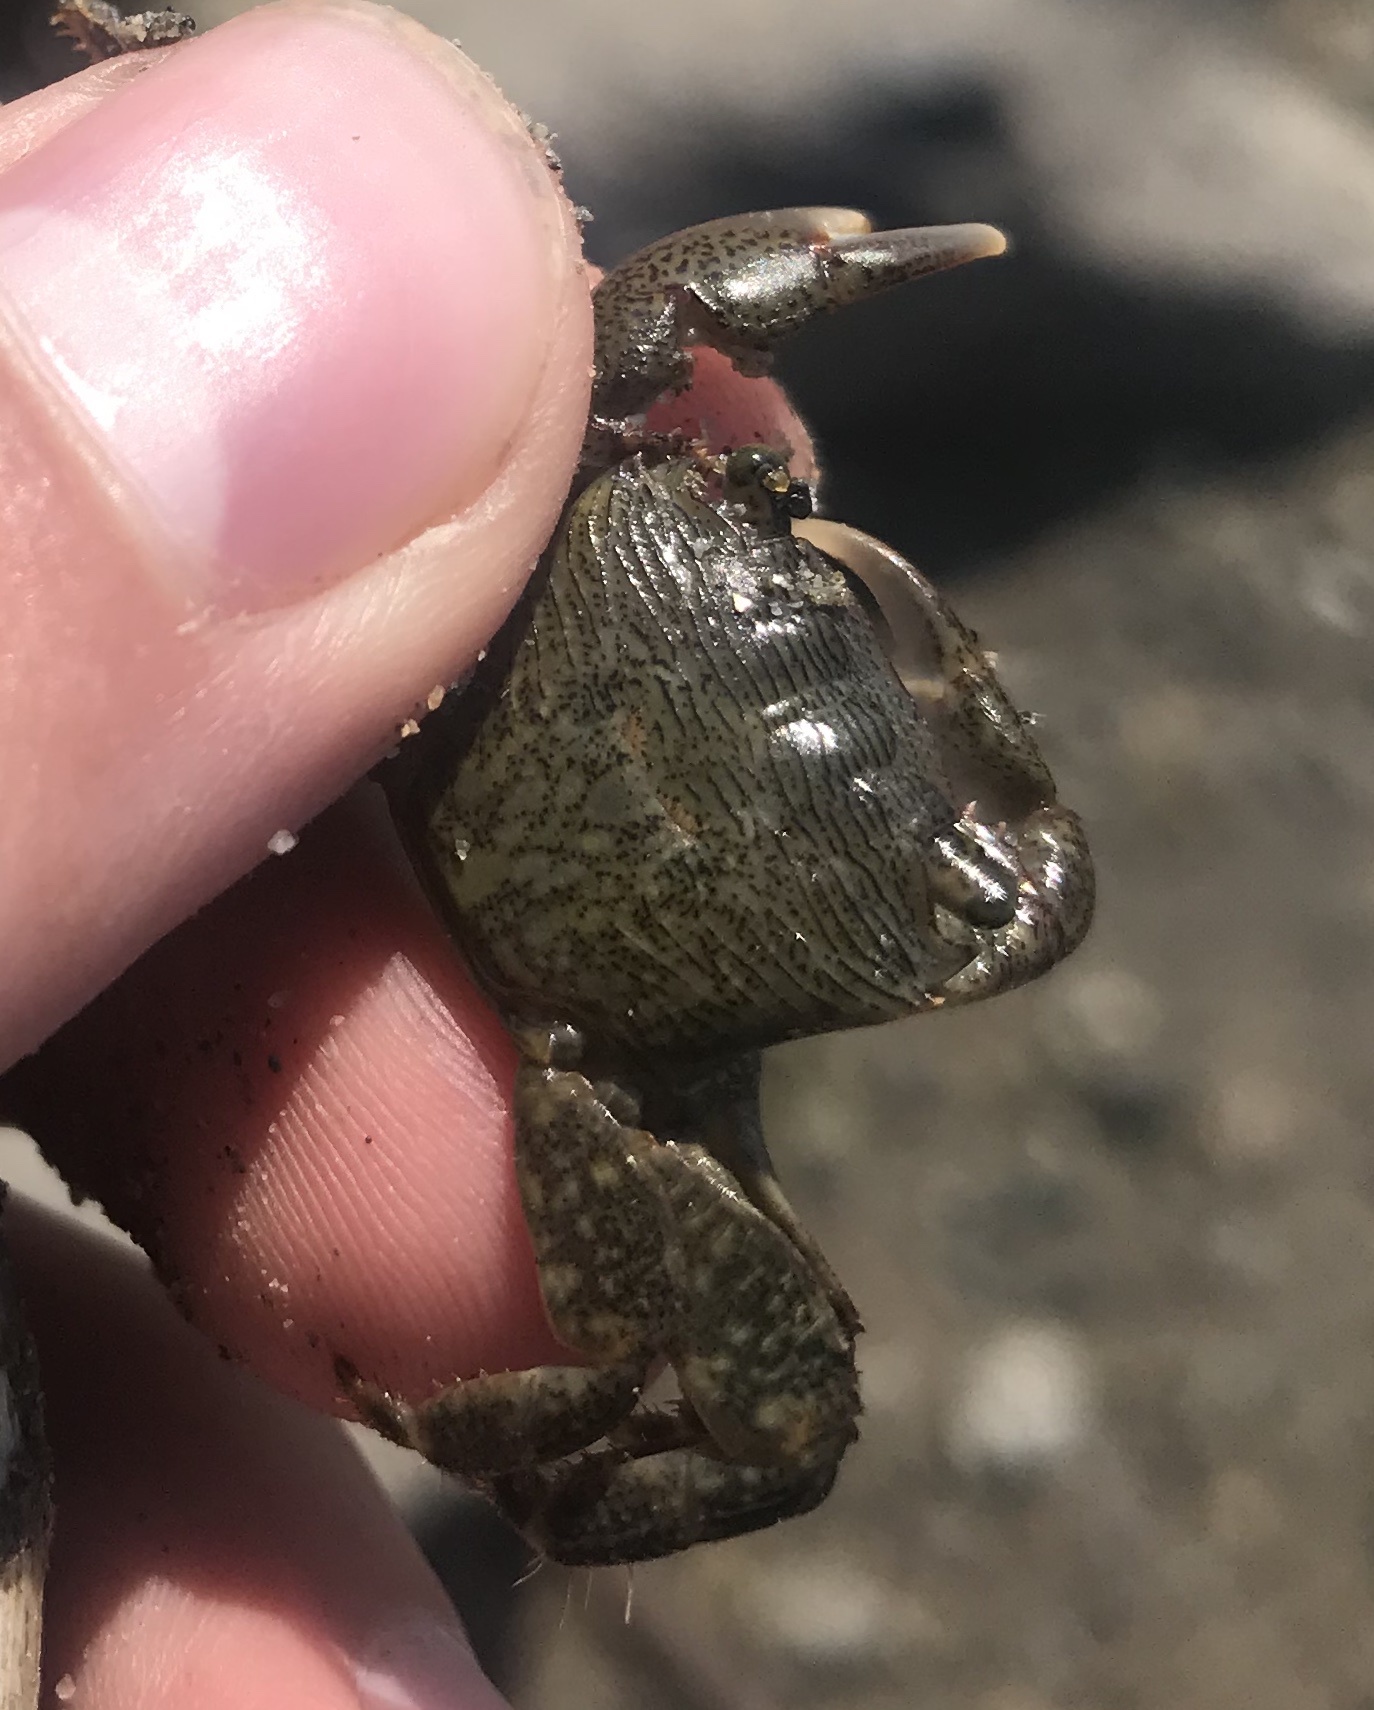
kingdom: Animalia
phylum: Arthropoda
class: Malacostraca
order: Decapoda
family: Grapsidae
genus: Pachygrapsus
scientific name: Pachygrapsus crassipes
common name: Striped shore crab
